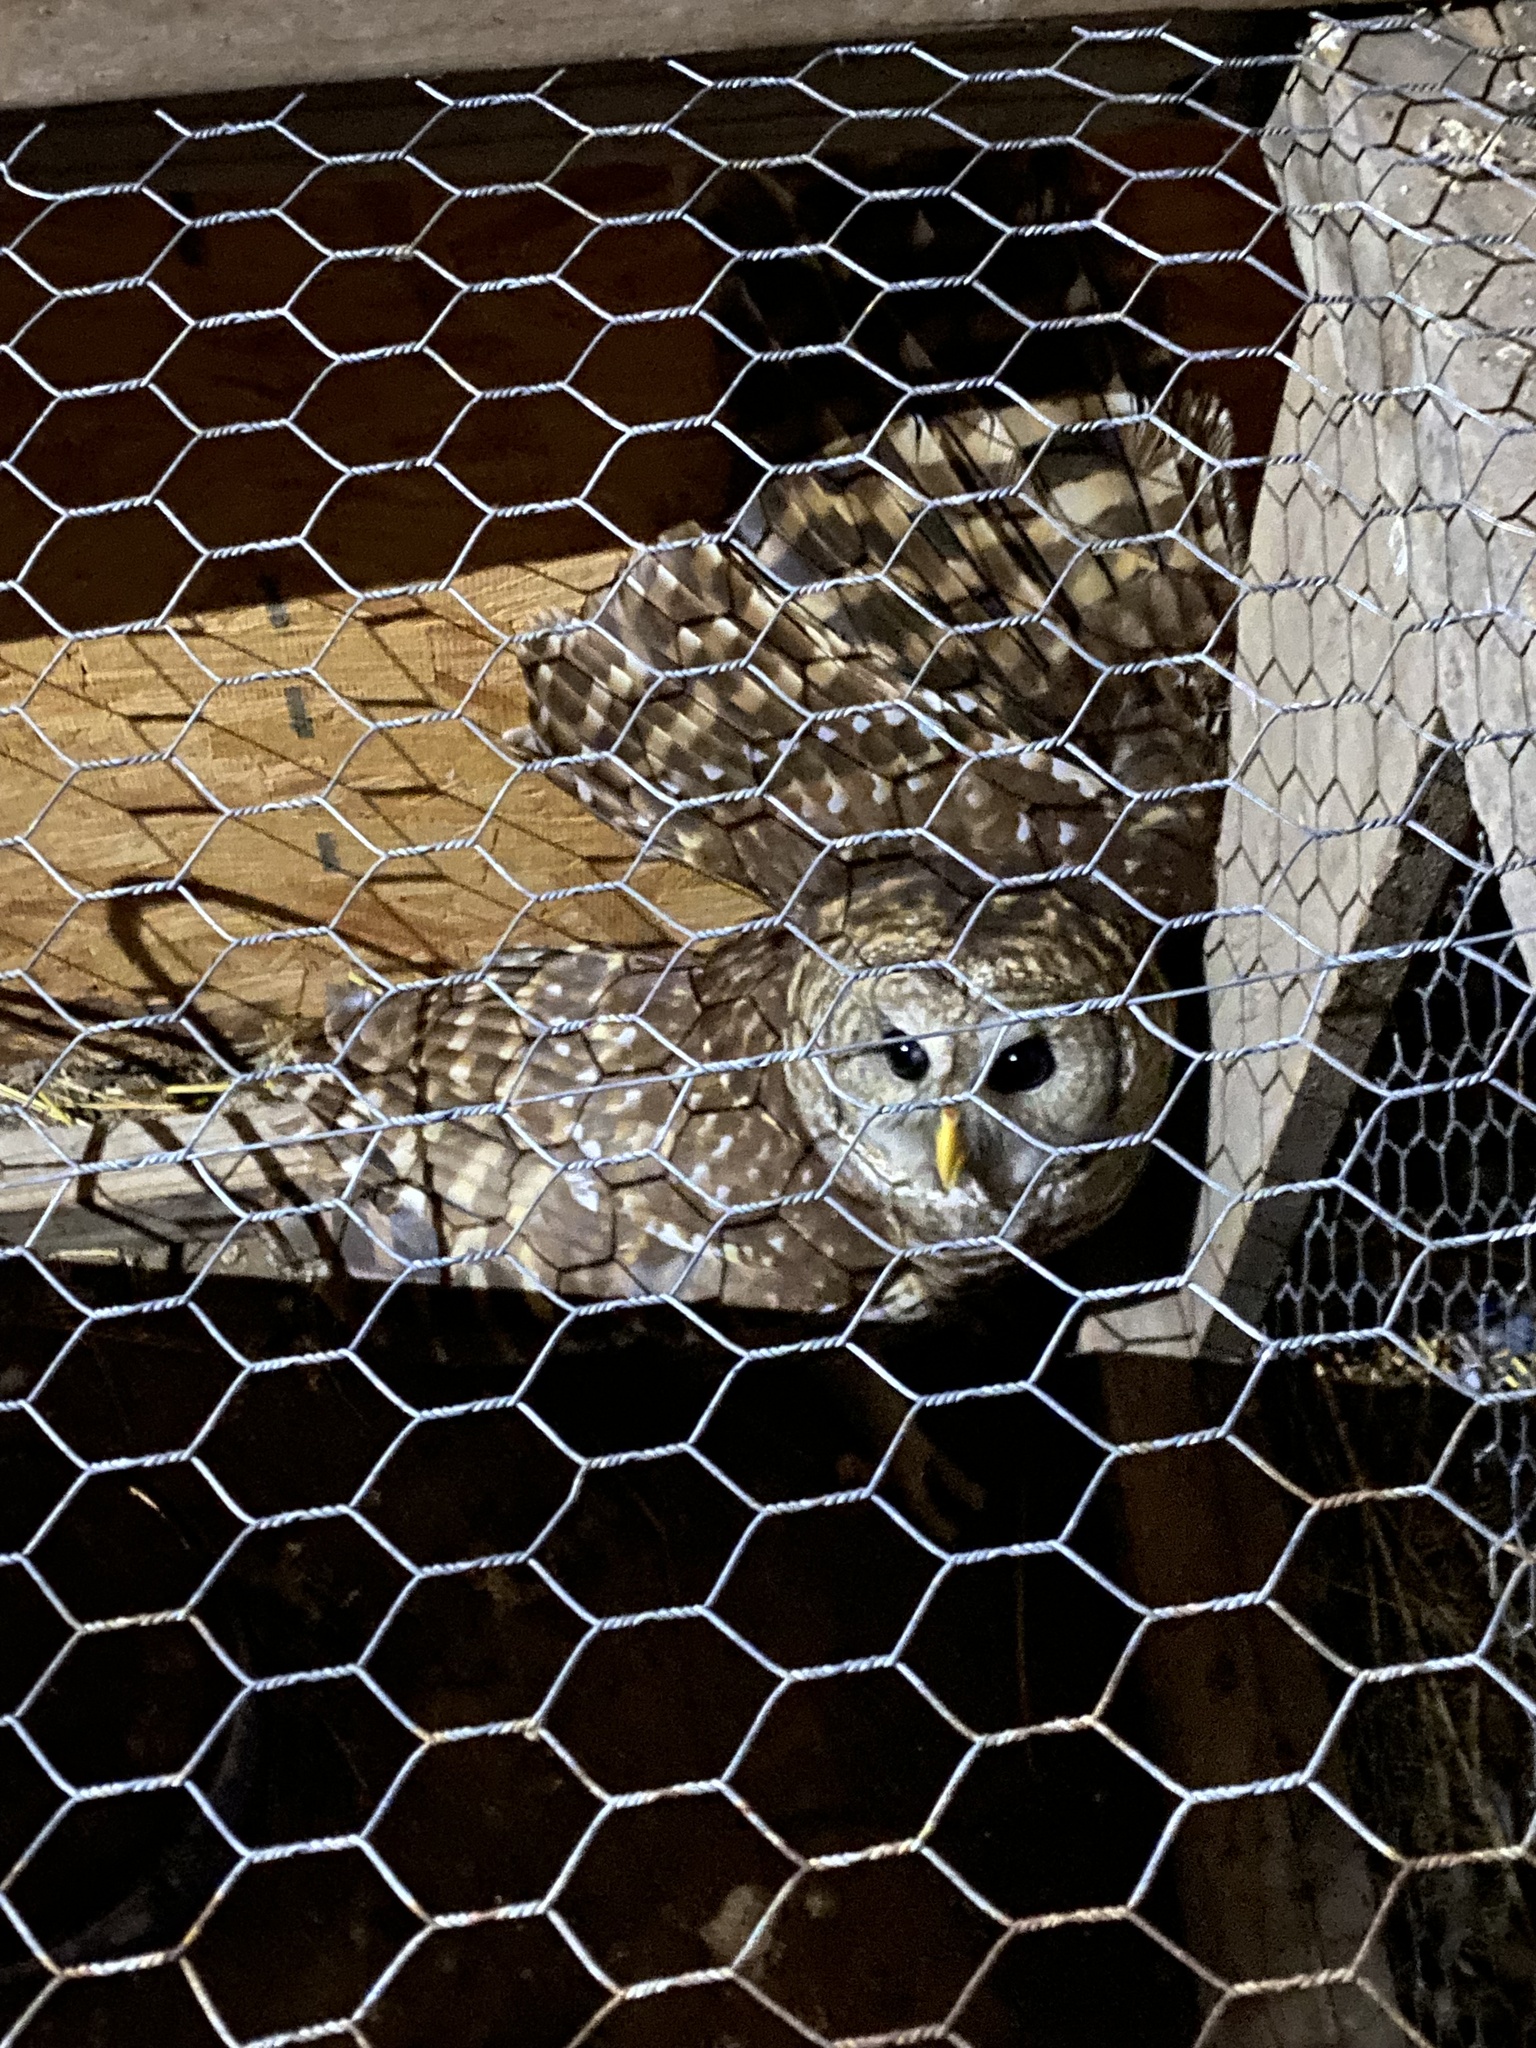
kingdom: Animalia
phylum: Chordata
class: Aves
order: Strigiformes
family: Strigidae
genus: Strix
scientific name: Strix varia
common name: Barred owl
